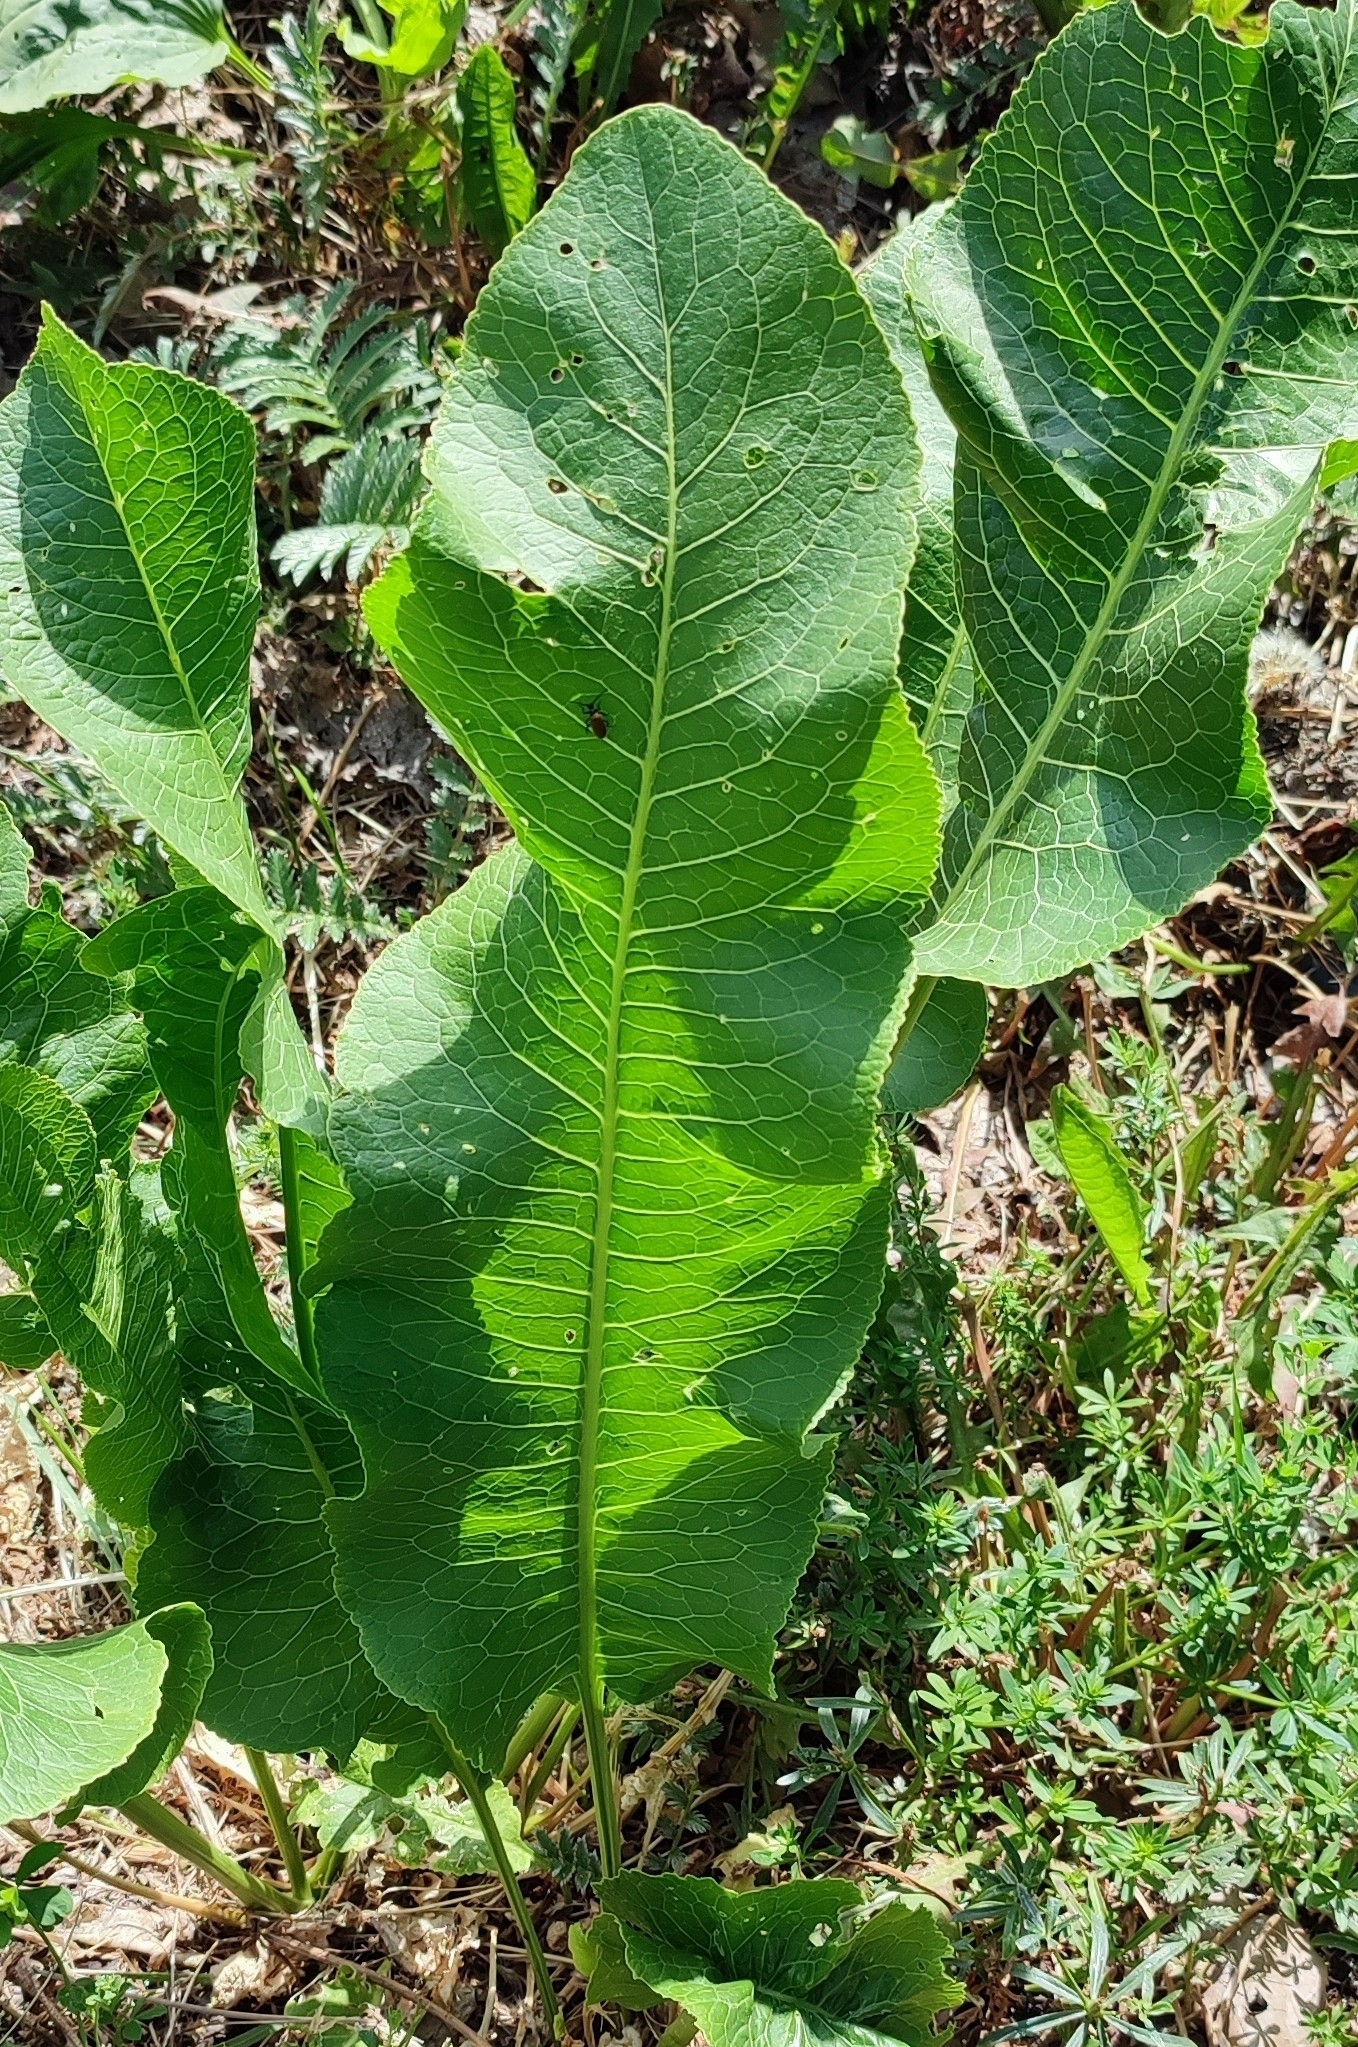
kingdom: Plantae
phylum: Tracheophyta
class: Magnoliopsida
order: Brassicales
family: Brassicaceae
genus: Armoracia
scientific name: Armoracia rusticana
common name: Horseradish
